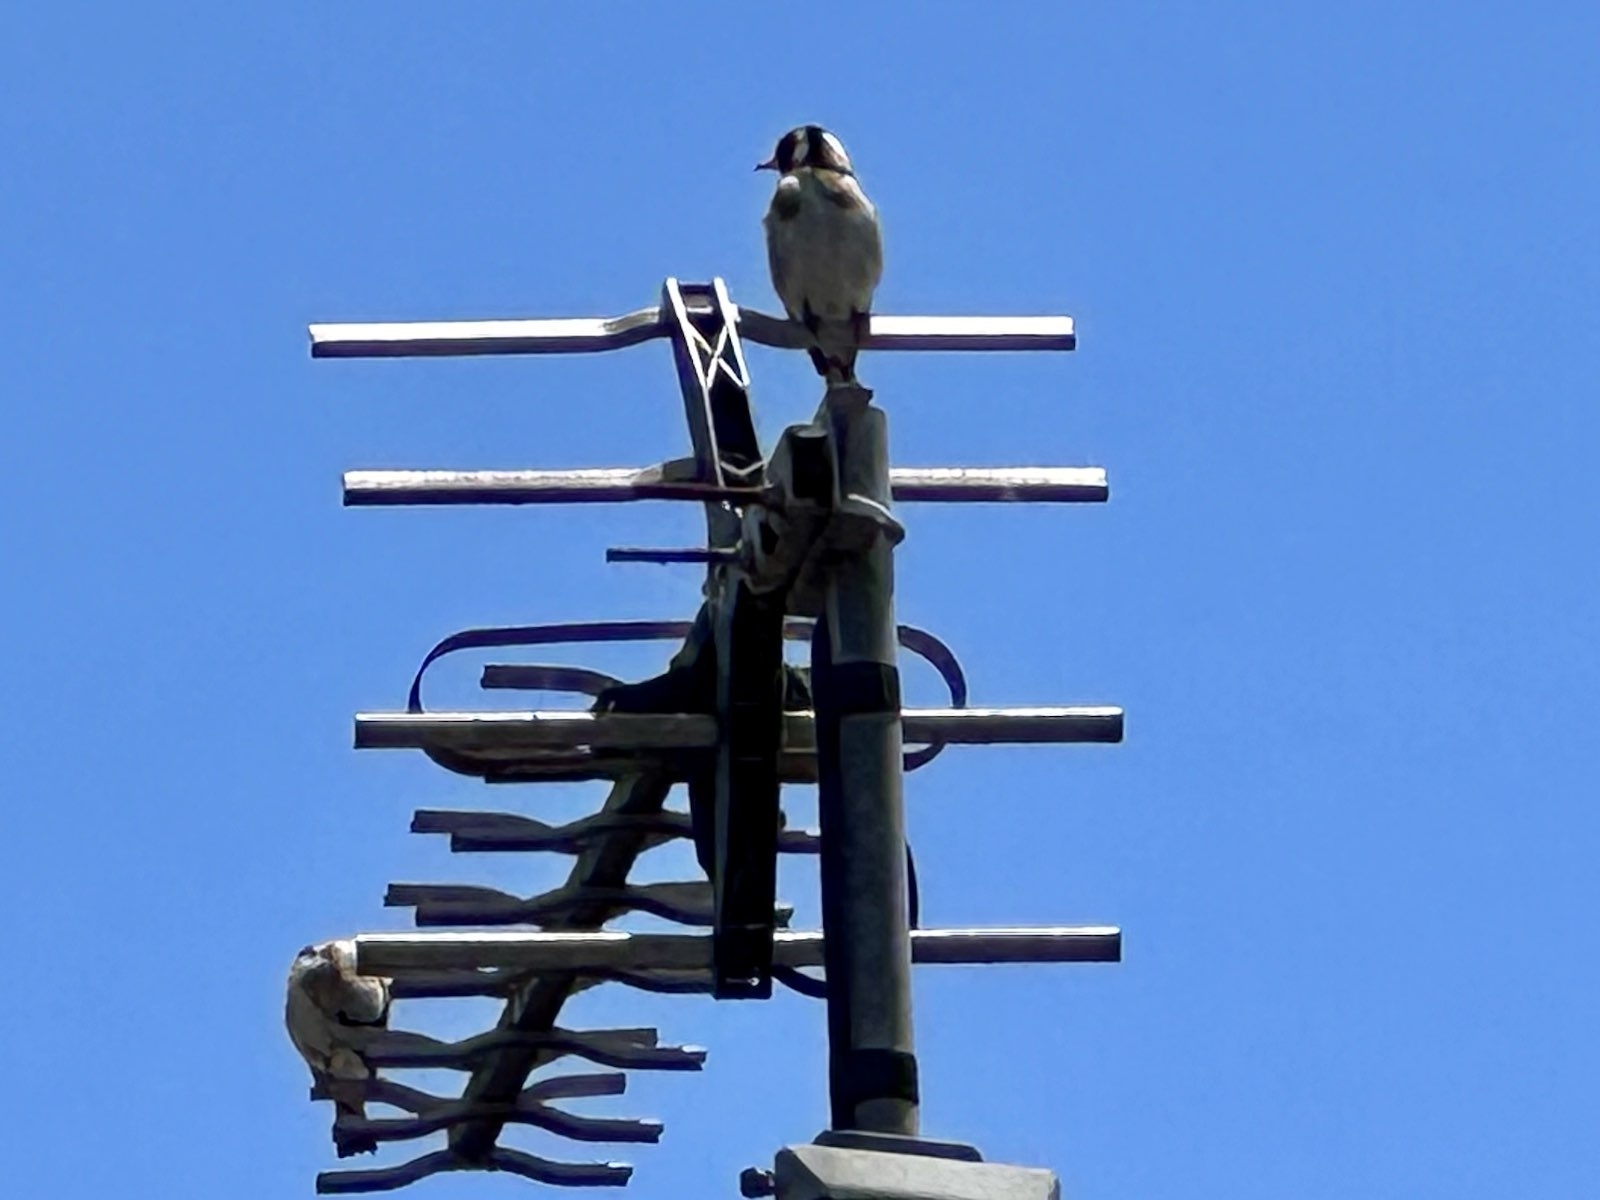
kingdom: Animalia
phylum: Chordata
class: Aves
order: Passeriformes
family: Fringillidae
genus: Carduelis
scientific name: Carduelis carduelis
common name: European goldfinch
